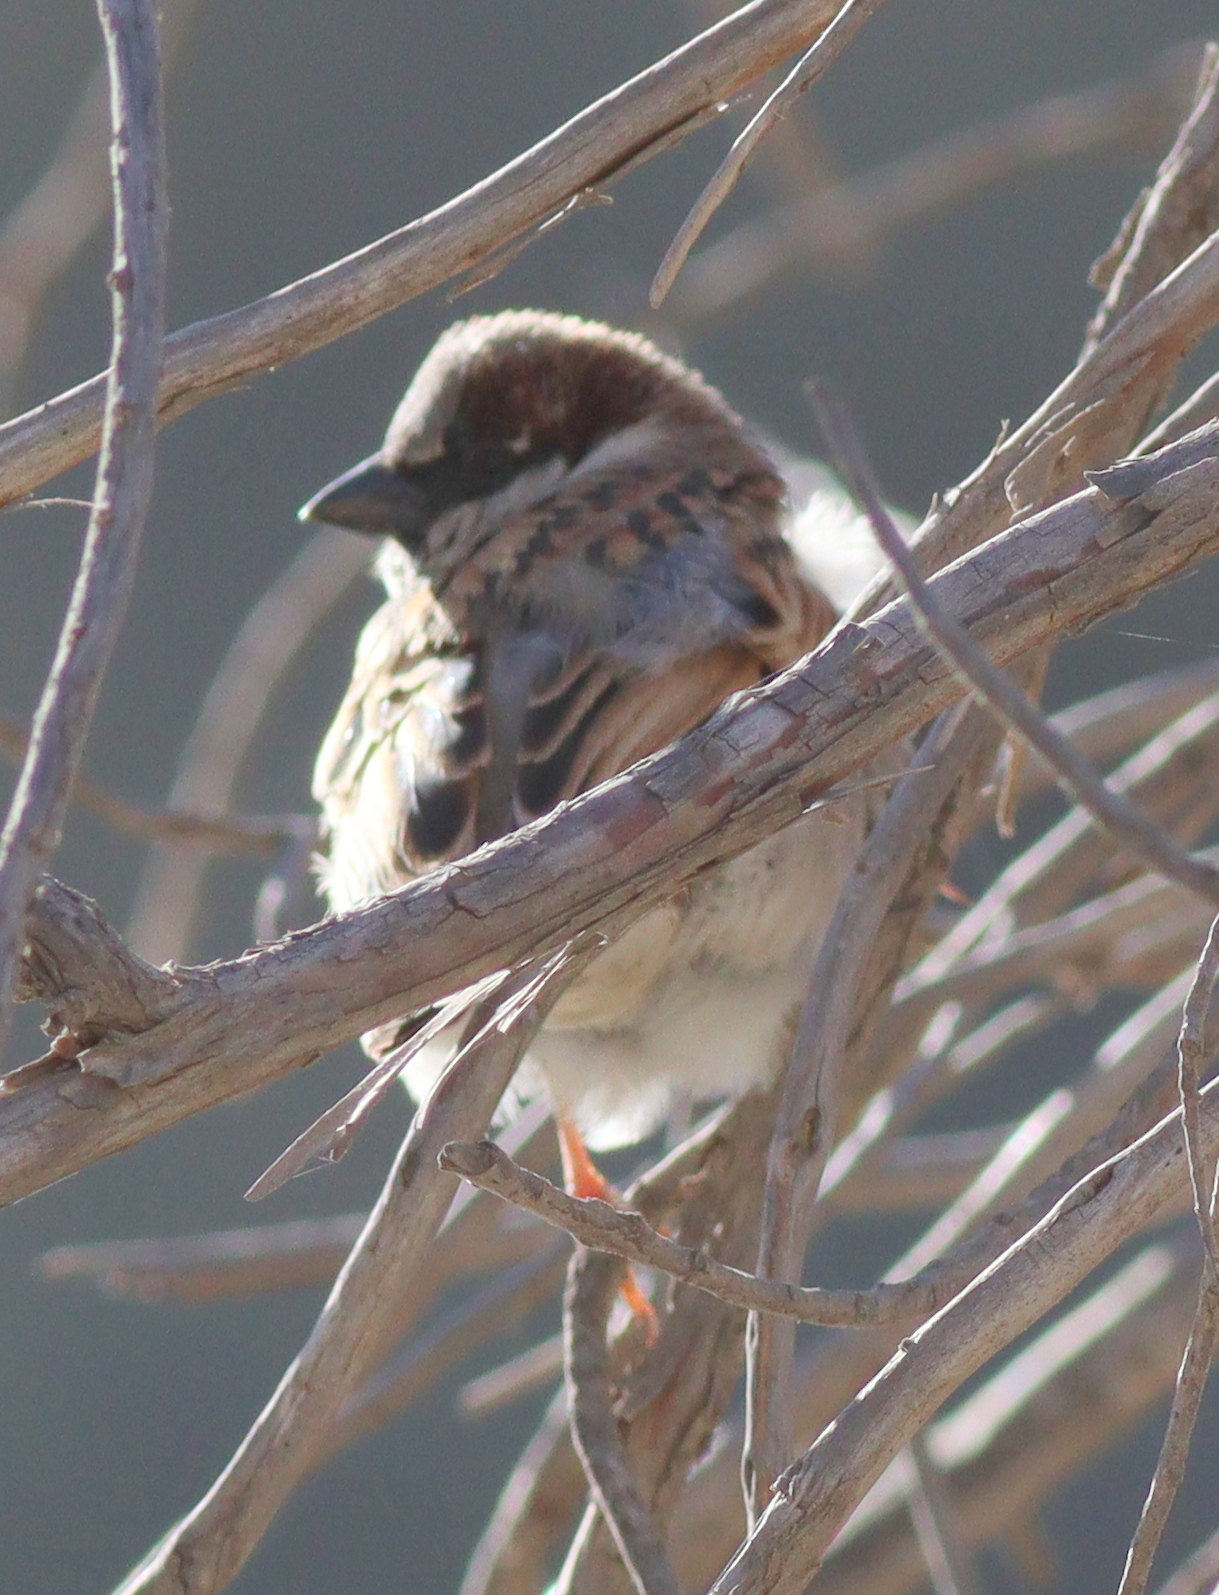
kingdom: Animalia
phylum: Chordata
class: Aves
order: Passeriformes
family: Passeridae
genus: Passer
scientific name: Passer domesticus
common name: House sparrow
